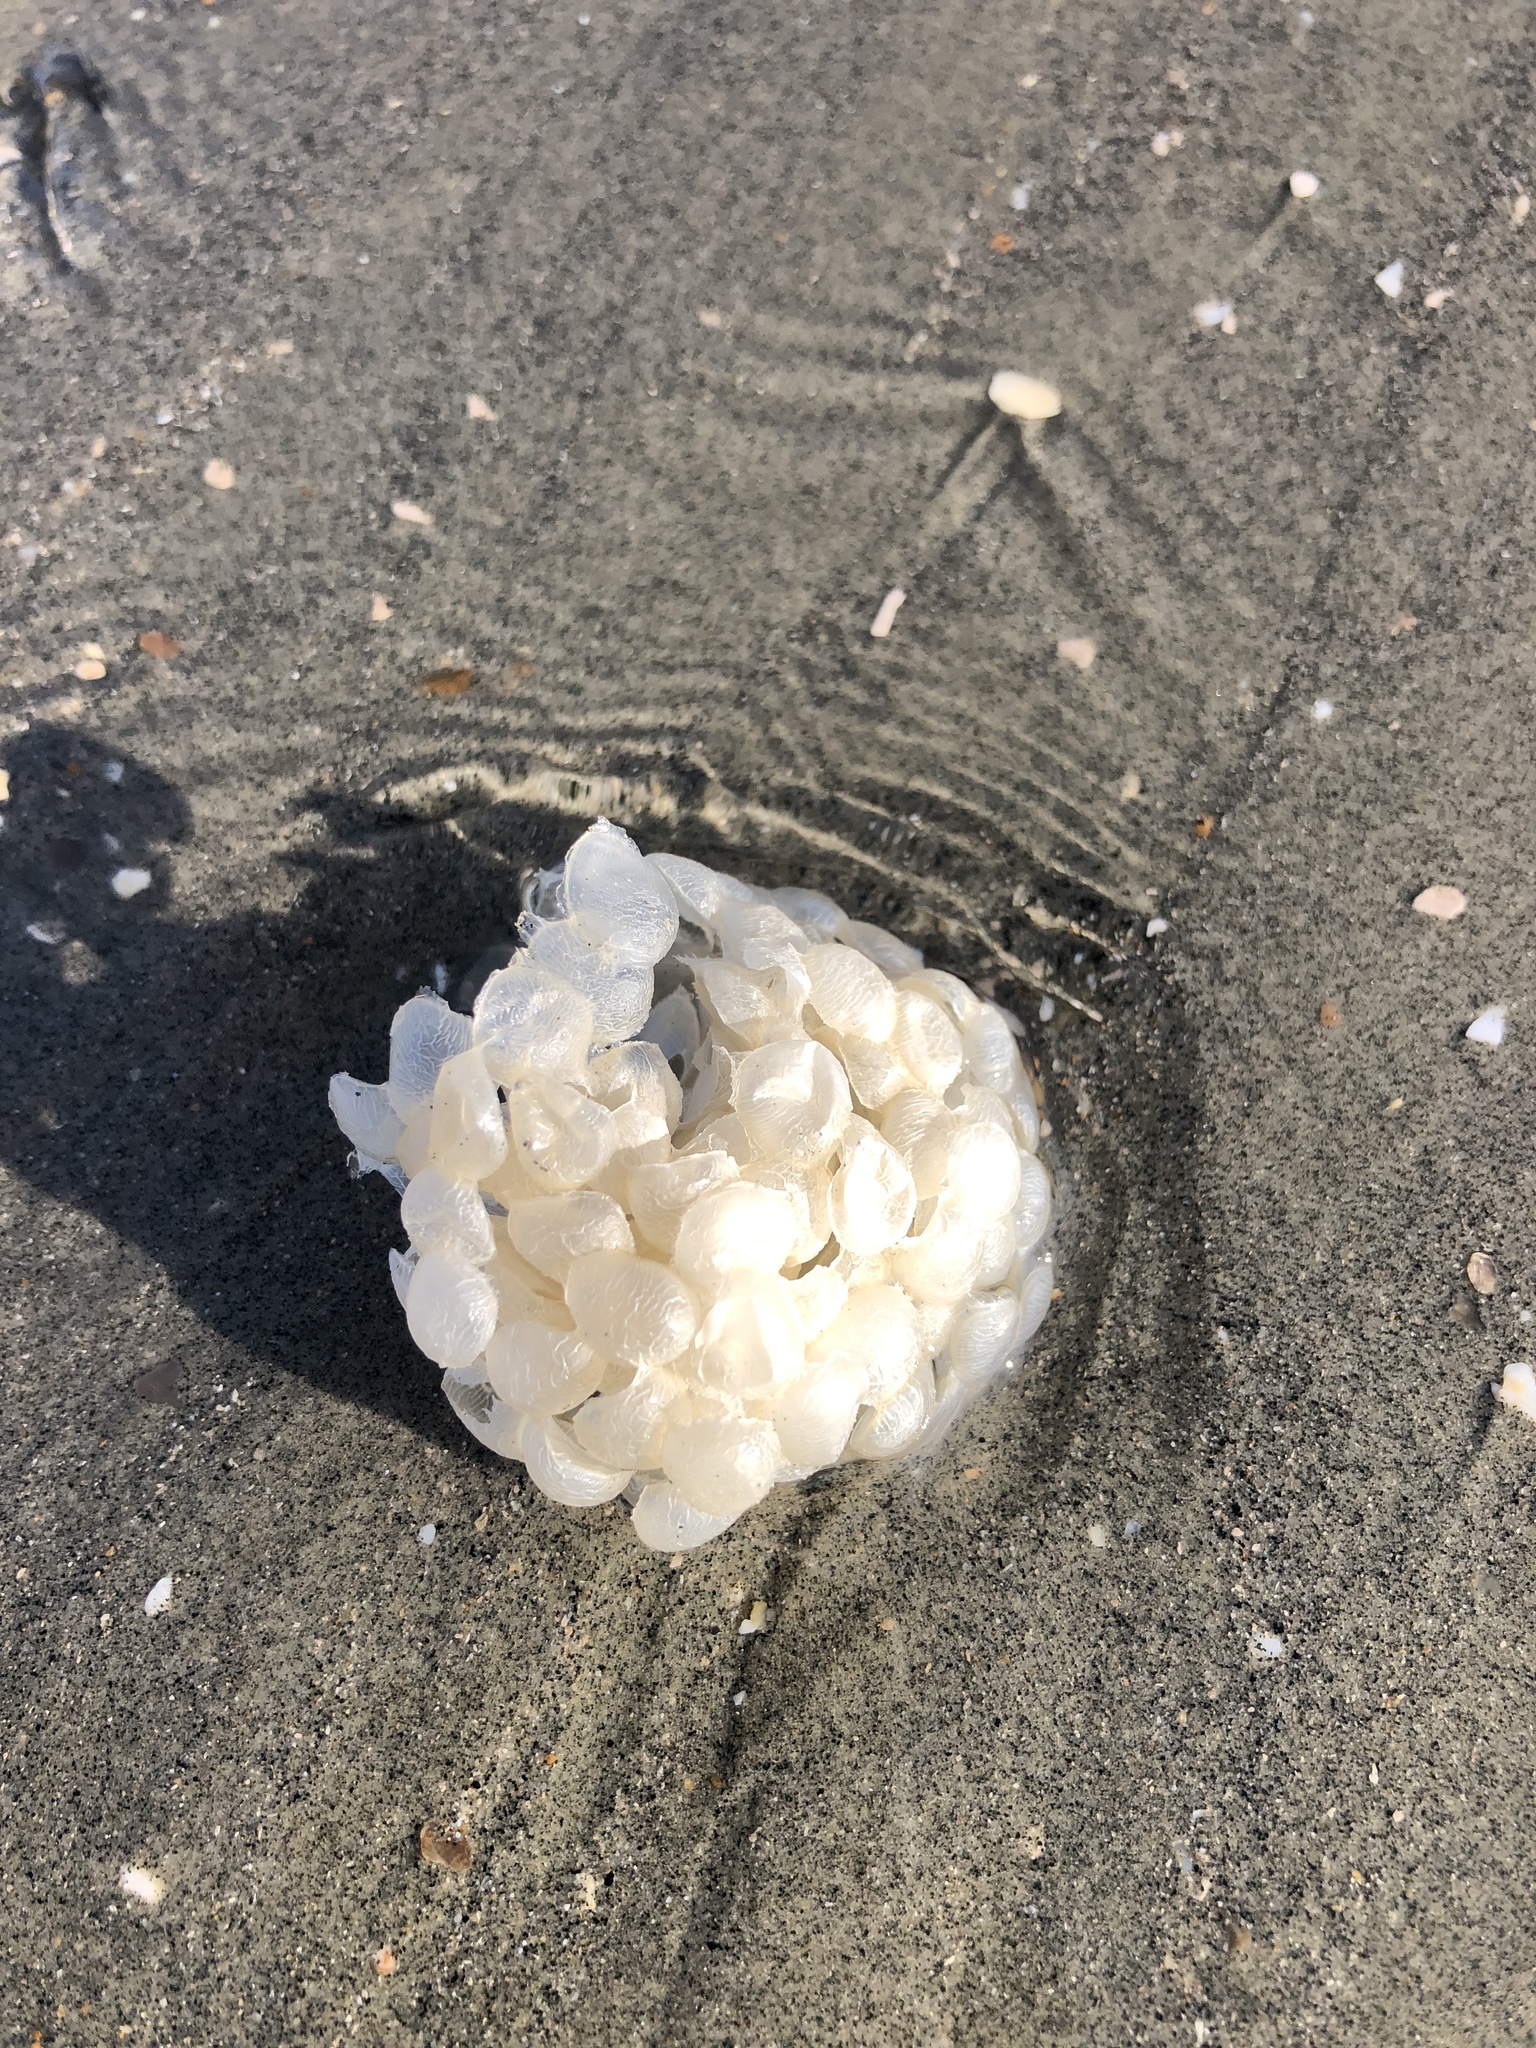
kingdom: Animalia
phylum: Mollusca
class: Gastropoda
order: Neogastropoda
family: Buccinidae
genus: Buccinum
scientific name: Buccinum undatum
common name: Common whelk
